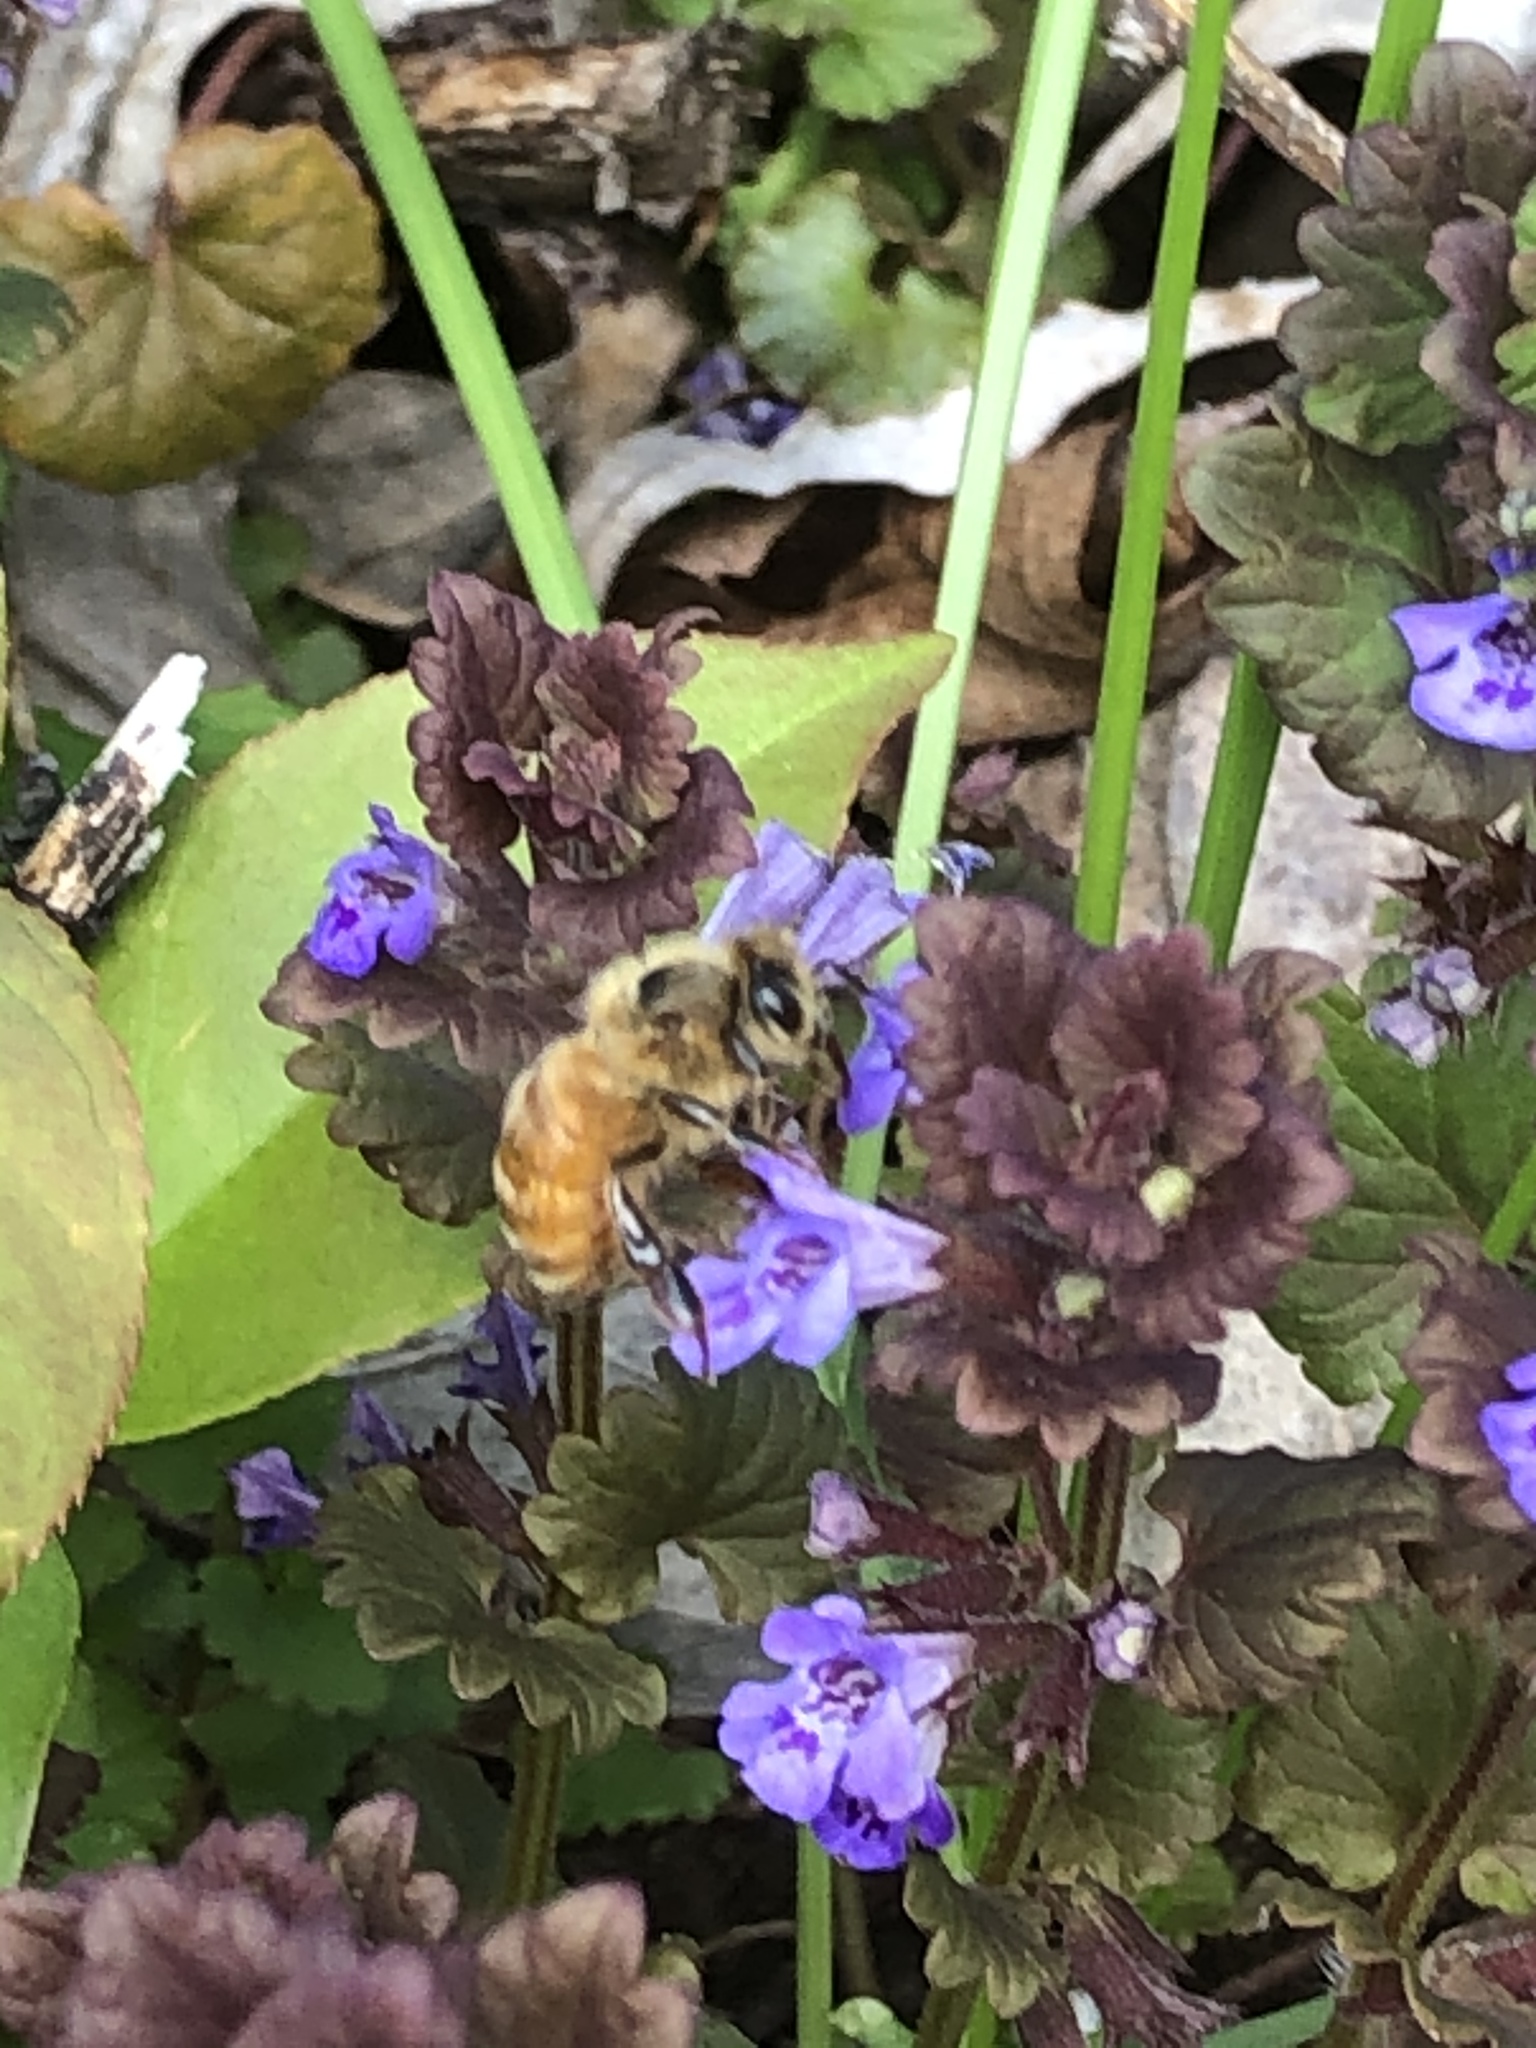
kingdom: Animalia
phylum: Arthropoda
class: Insecta
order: Hymenoptera
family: Apidae
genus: Apis
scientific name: Apis mellifera
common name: Honey bee
